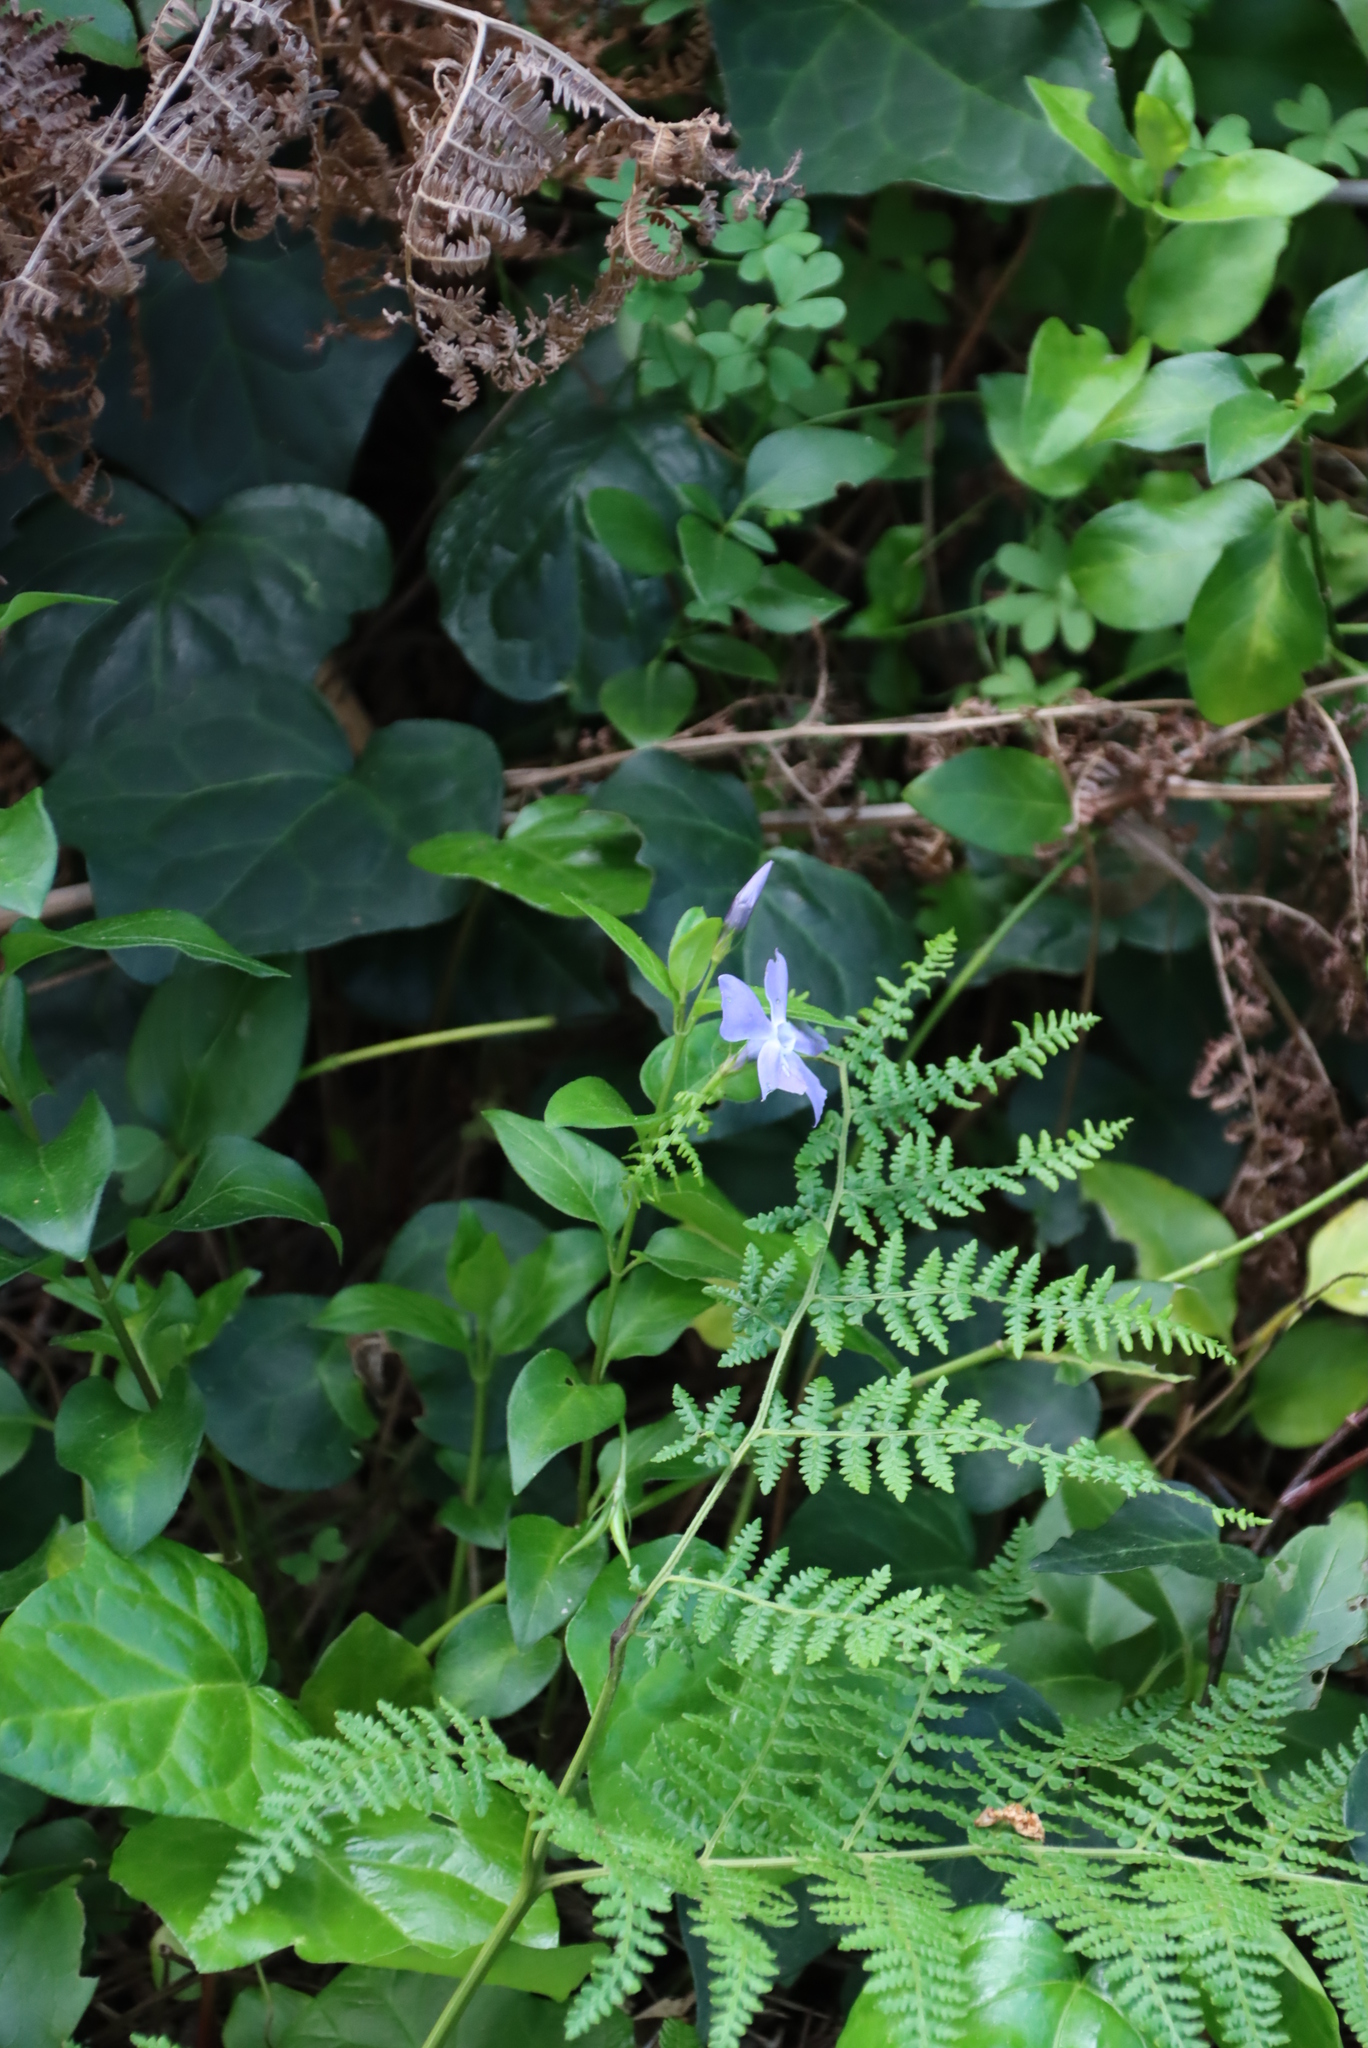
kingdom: Plantae
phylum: Tracheophyta
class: Magnoliopsida
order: Gentianales
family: Apocynaceae
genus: Vinca
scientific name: Vinca major
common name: Greater periwinkle
